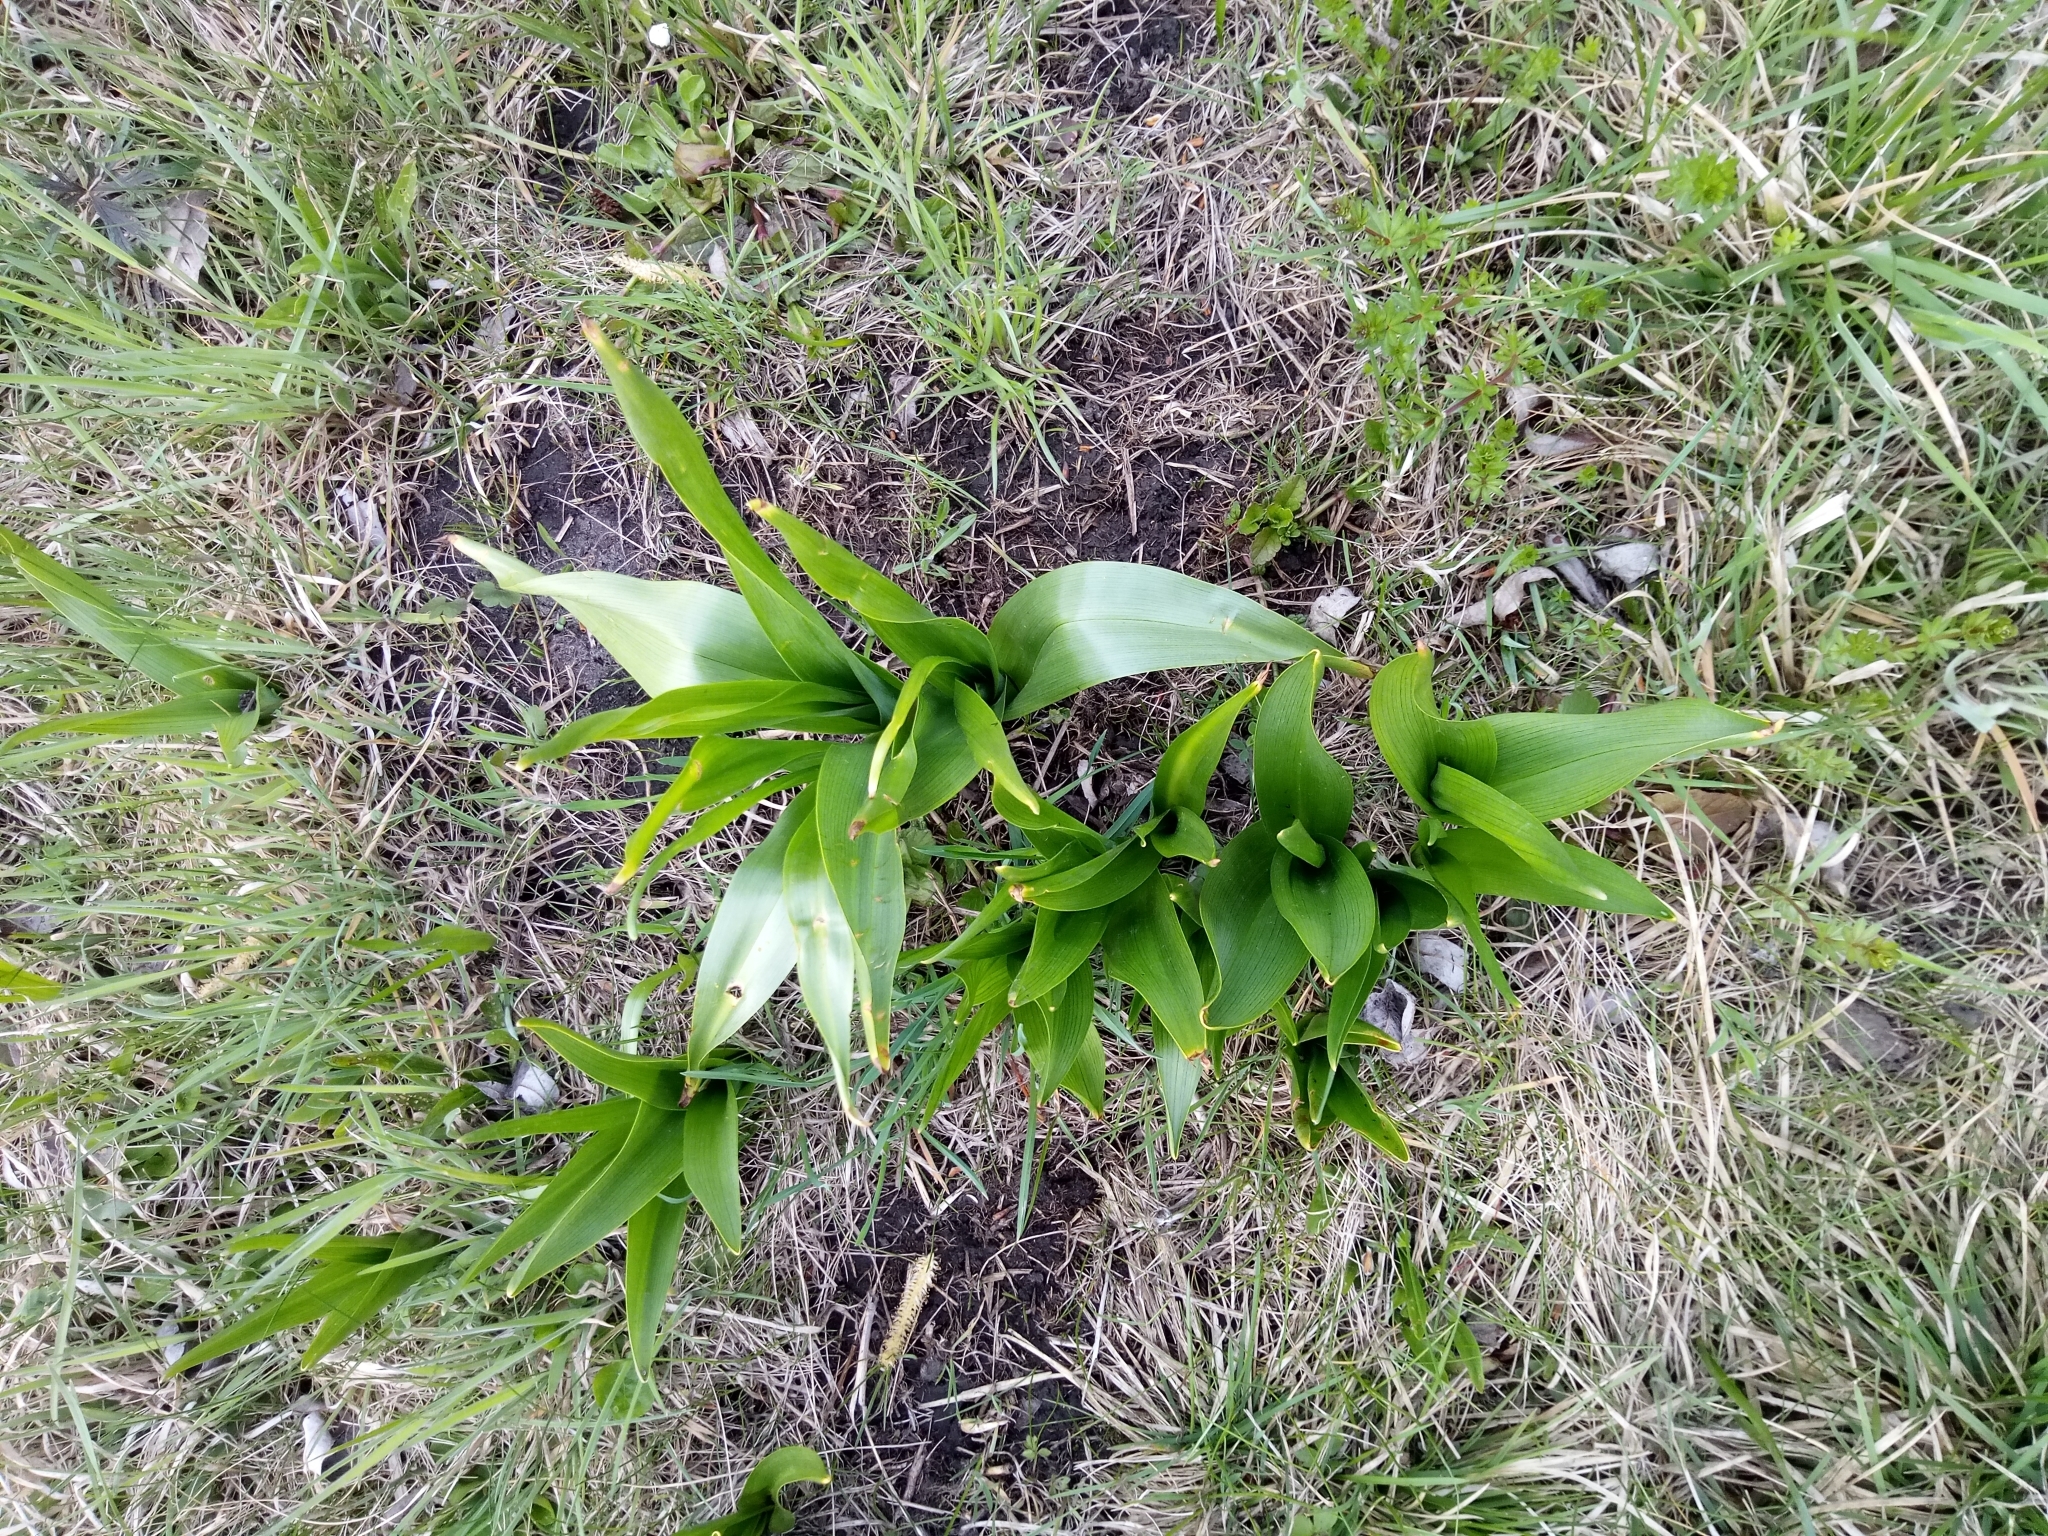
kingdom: Plantae
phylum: Tracheophyta
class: Liliopsida
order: Liliales
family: Colchicaceae
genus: Colchicum
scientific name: Colchicum autumnale
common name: Autumn crocus
